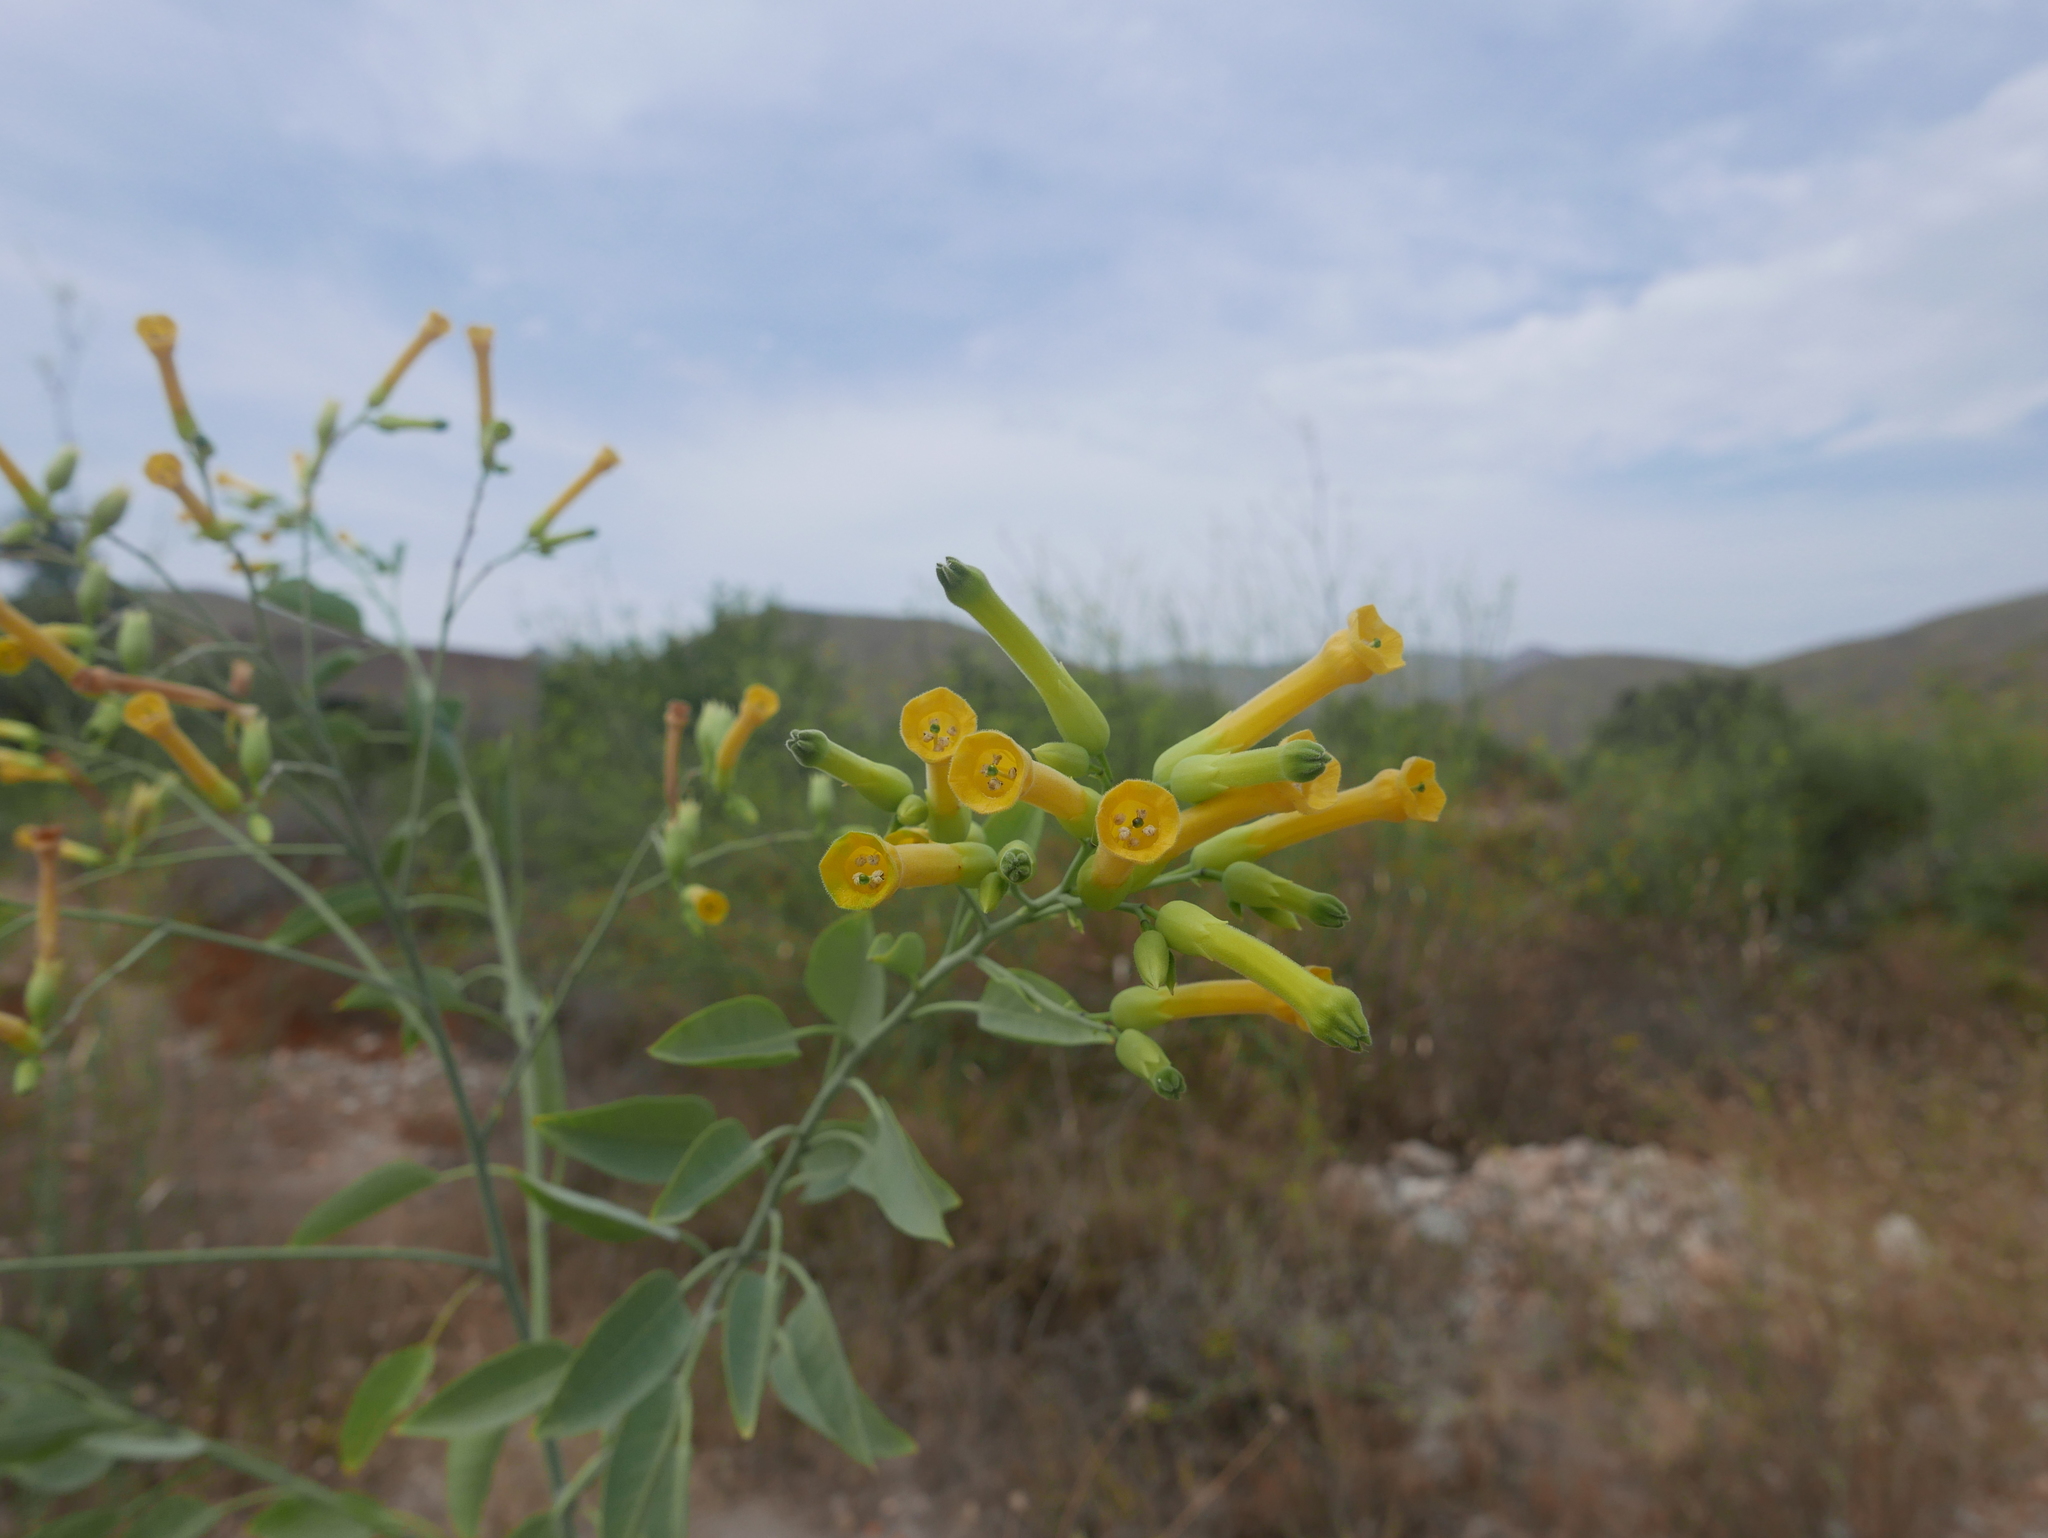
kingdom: Plantae
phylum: Tracheophyta
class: Magnoliopsida
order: Solanales
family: Solanaceae
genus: Nicotiana
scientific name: Nicotiana glauca
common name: Tree tobacco
